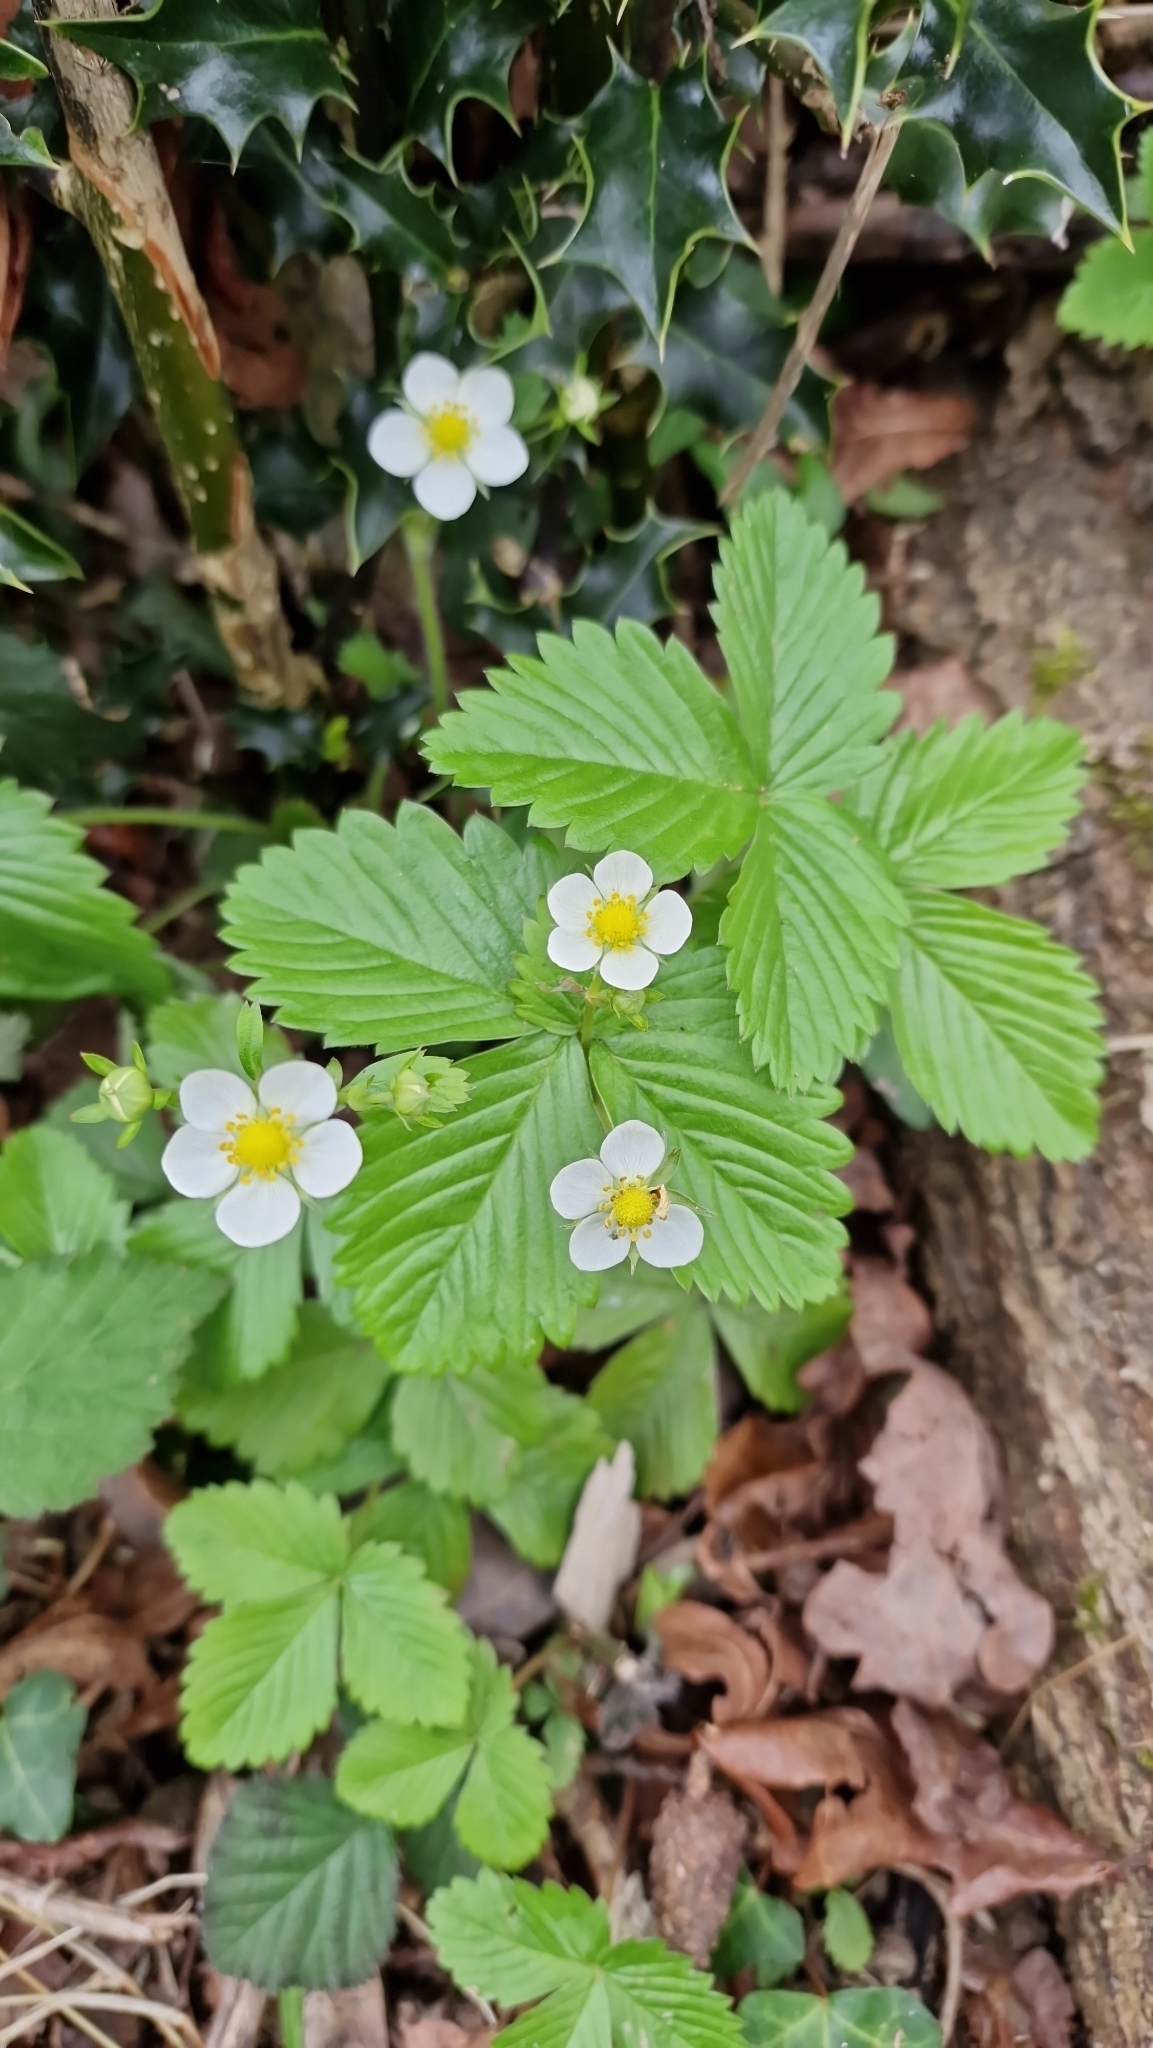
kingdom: Plantae
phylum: Tracheophyta
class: Magnoliopsida
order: Rosales
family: Rosaceae
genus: Fragaria
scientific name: Fragaria vesca
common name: Wild strawberry
